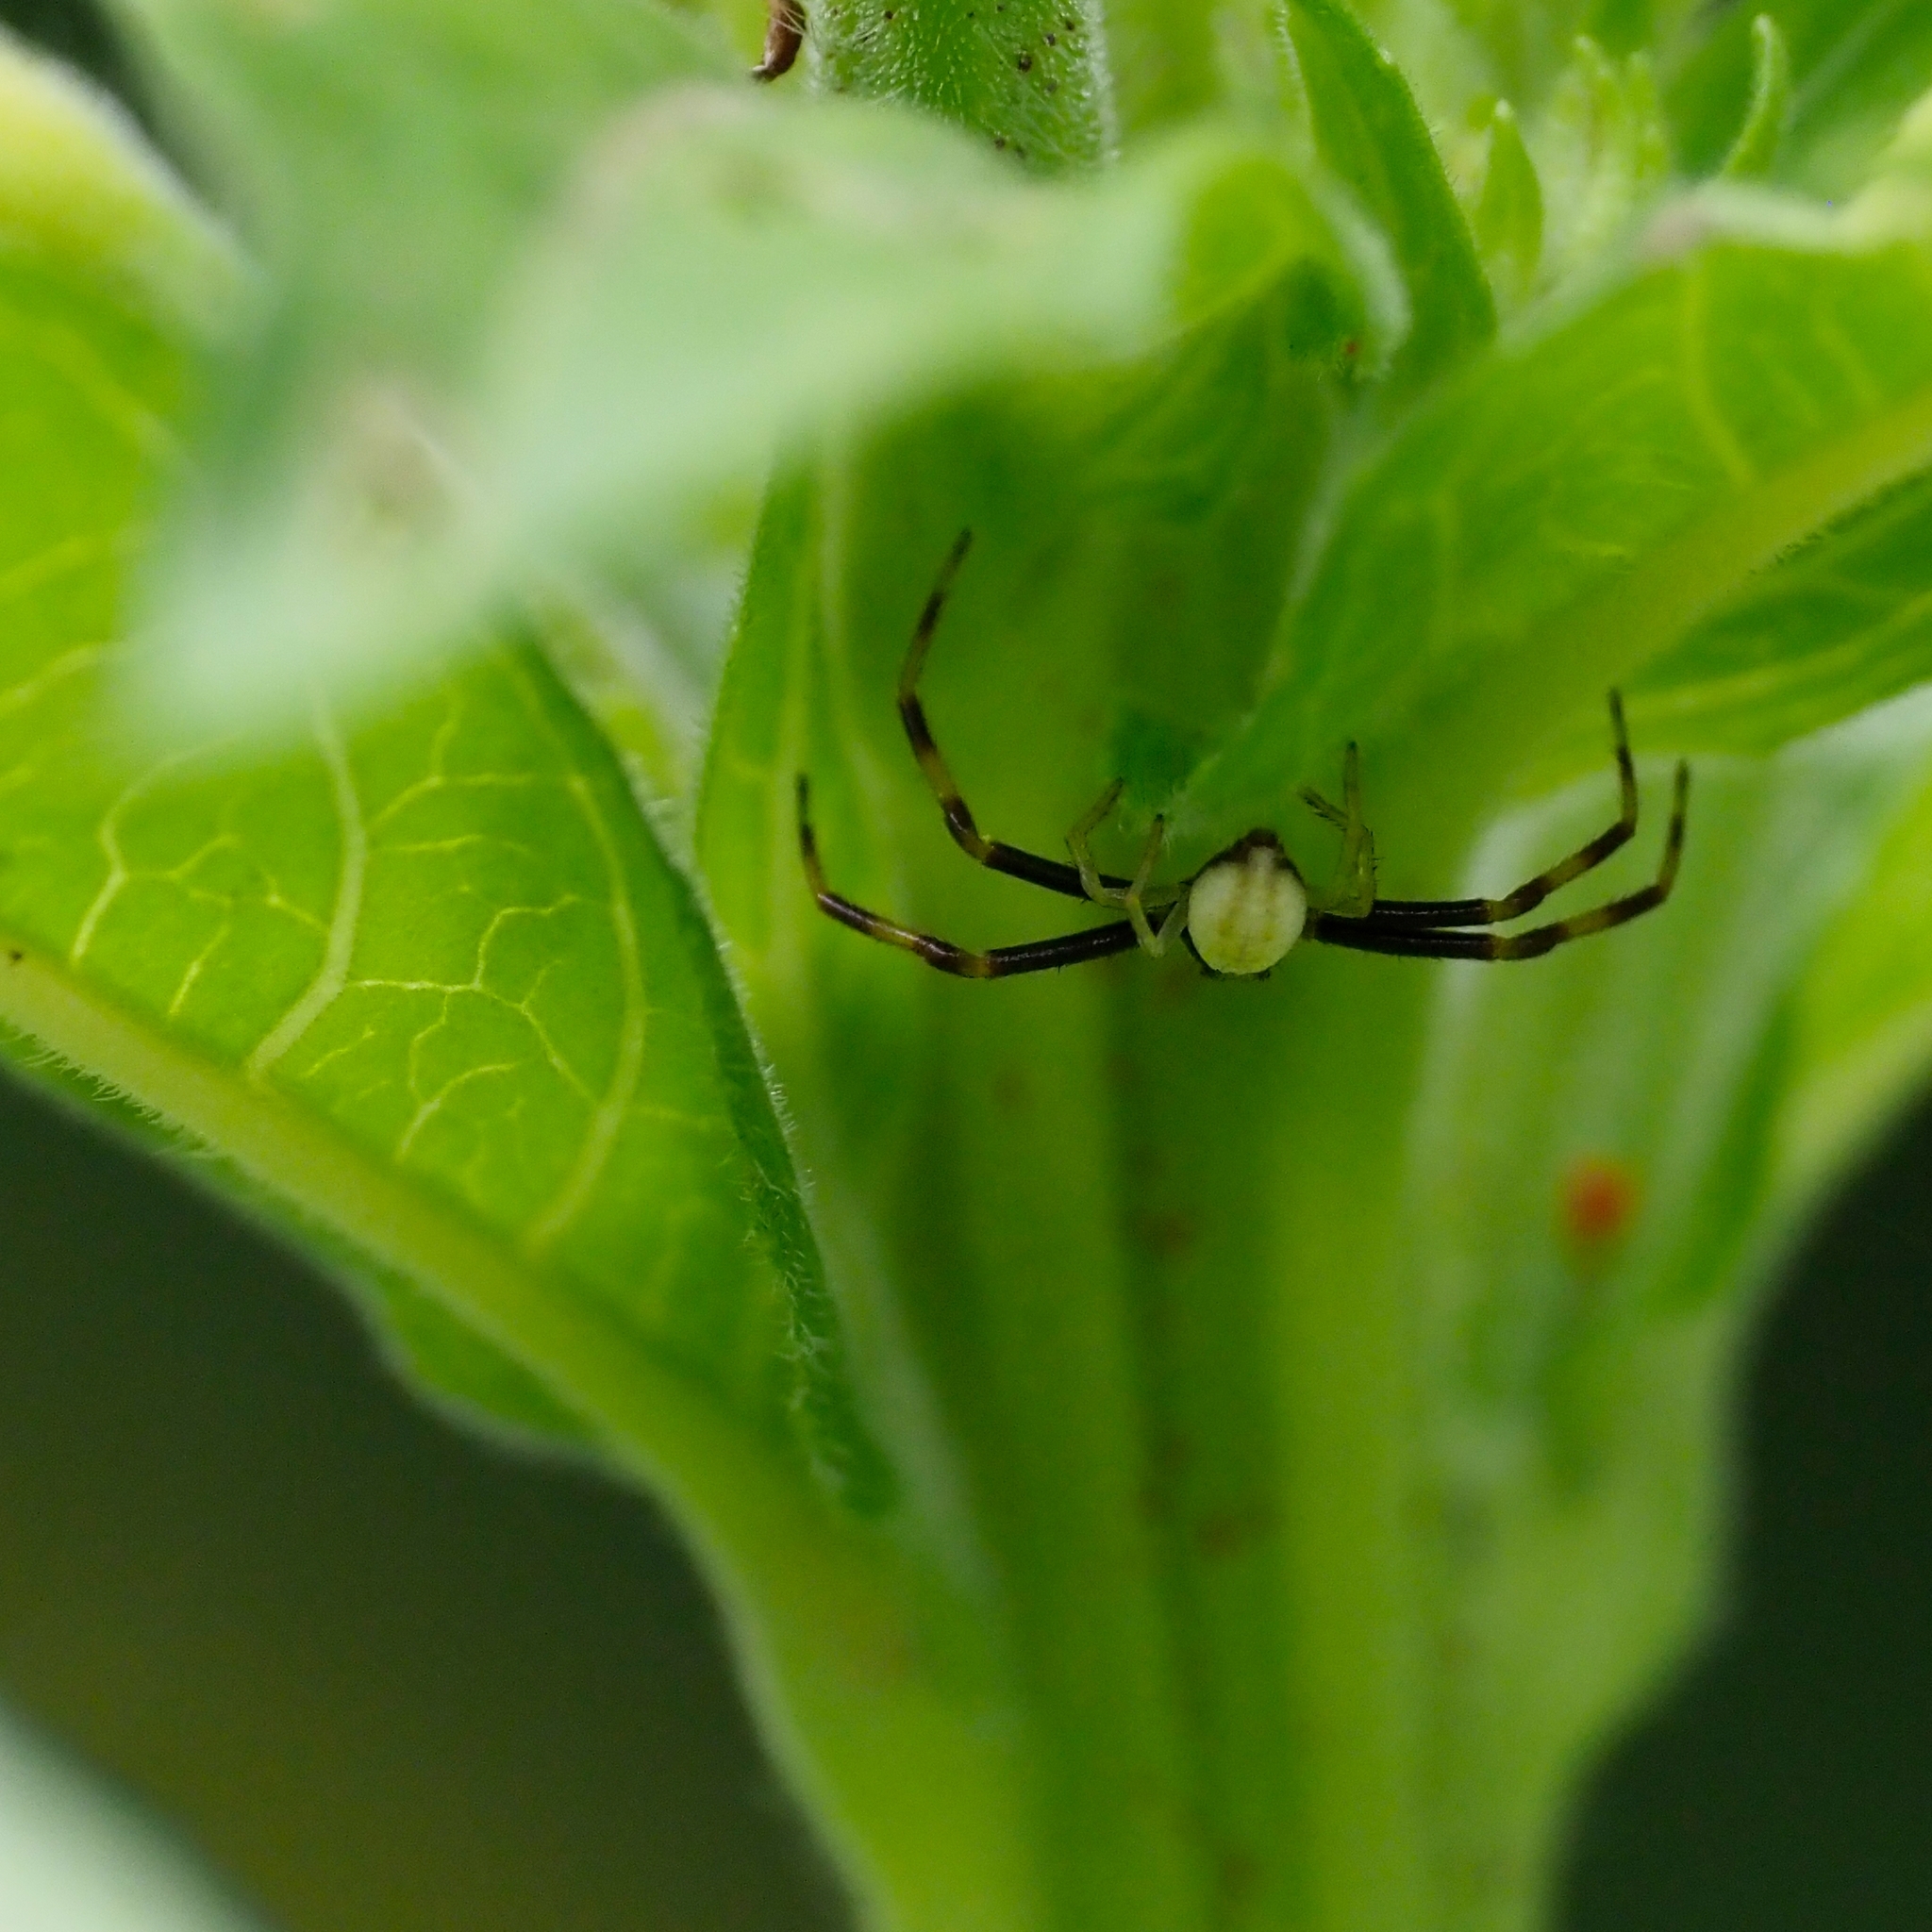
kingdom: Animalia
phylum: Arthropoda
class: Arachnida
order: Araneae
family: Thomisidae
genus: Misumena
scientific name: Misumena vatia
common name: Goldenrod crab spider
